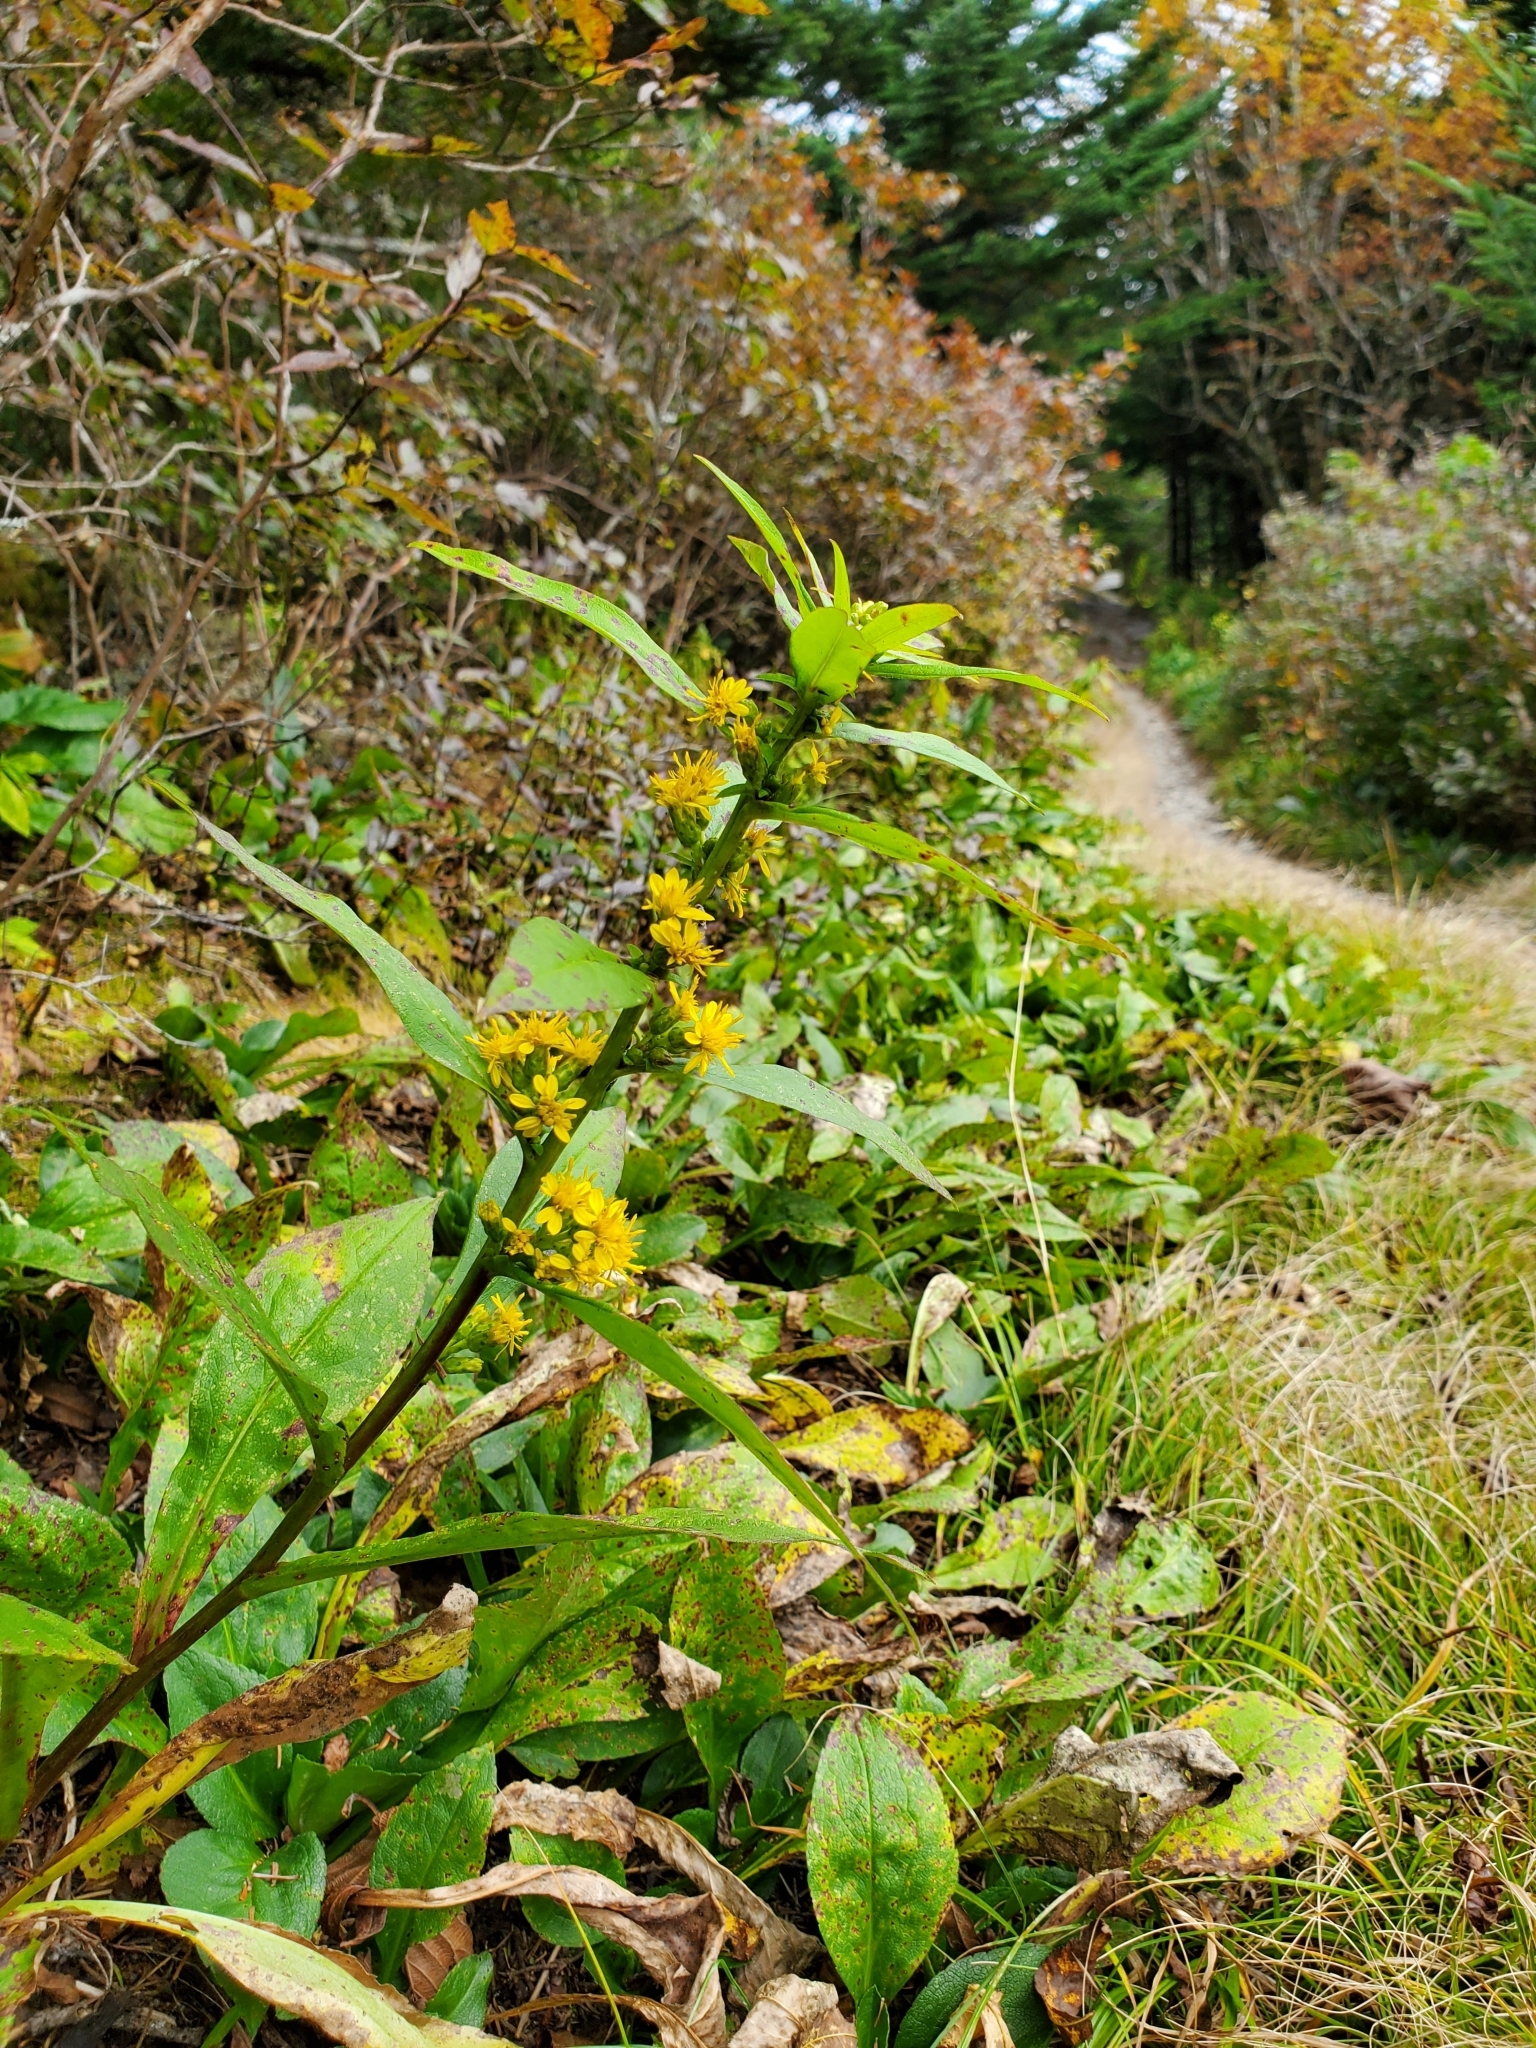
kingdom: Plantae
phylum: Tracheophyta
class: Magnoliopsida
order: Asterales
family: Asteraceae
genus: Solidago
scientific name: Solidago glomerata
